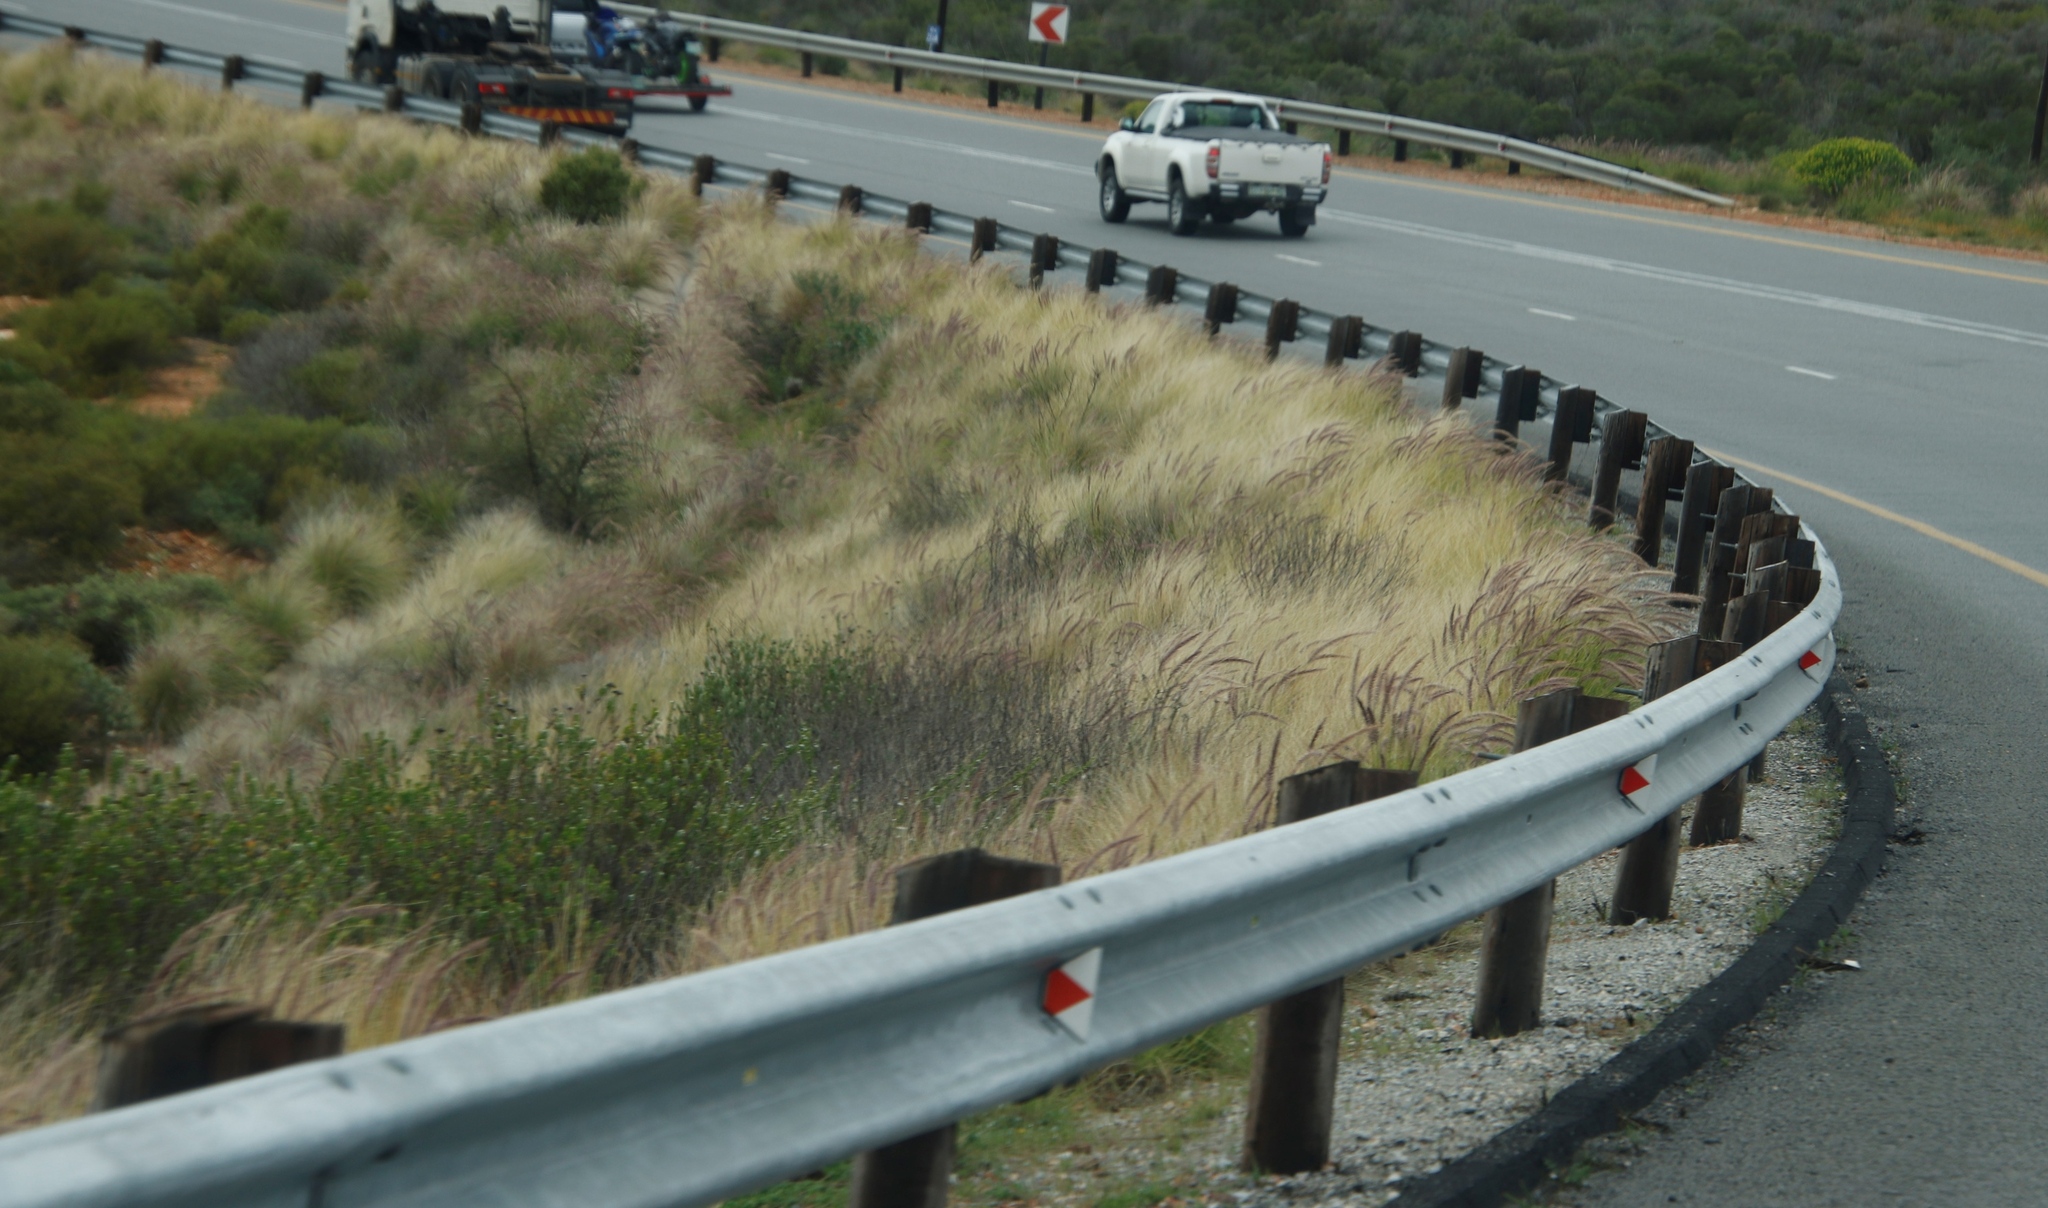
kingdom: Plantae
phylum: Tracheophyta
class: Liliopsida
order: Poales
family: Poaceae
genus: Cenchrus
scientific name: Cenchrus setaceus
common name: Crimson fountaingrass
